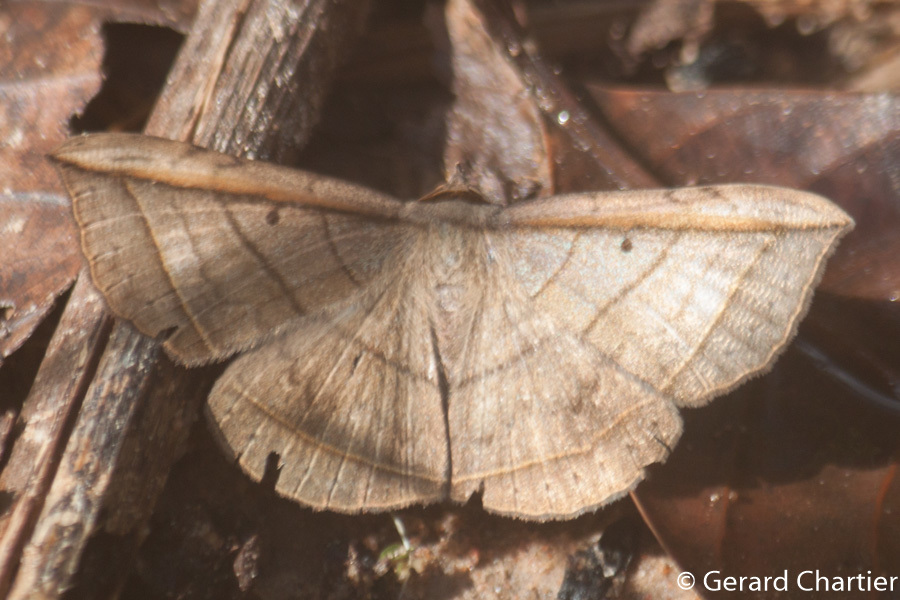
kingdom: Animalia
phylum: Arthropoda
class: Insecta
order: Lepidoptera
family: Erebidae
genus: Entomogramma
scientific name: Entomogramma fautrix
